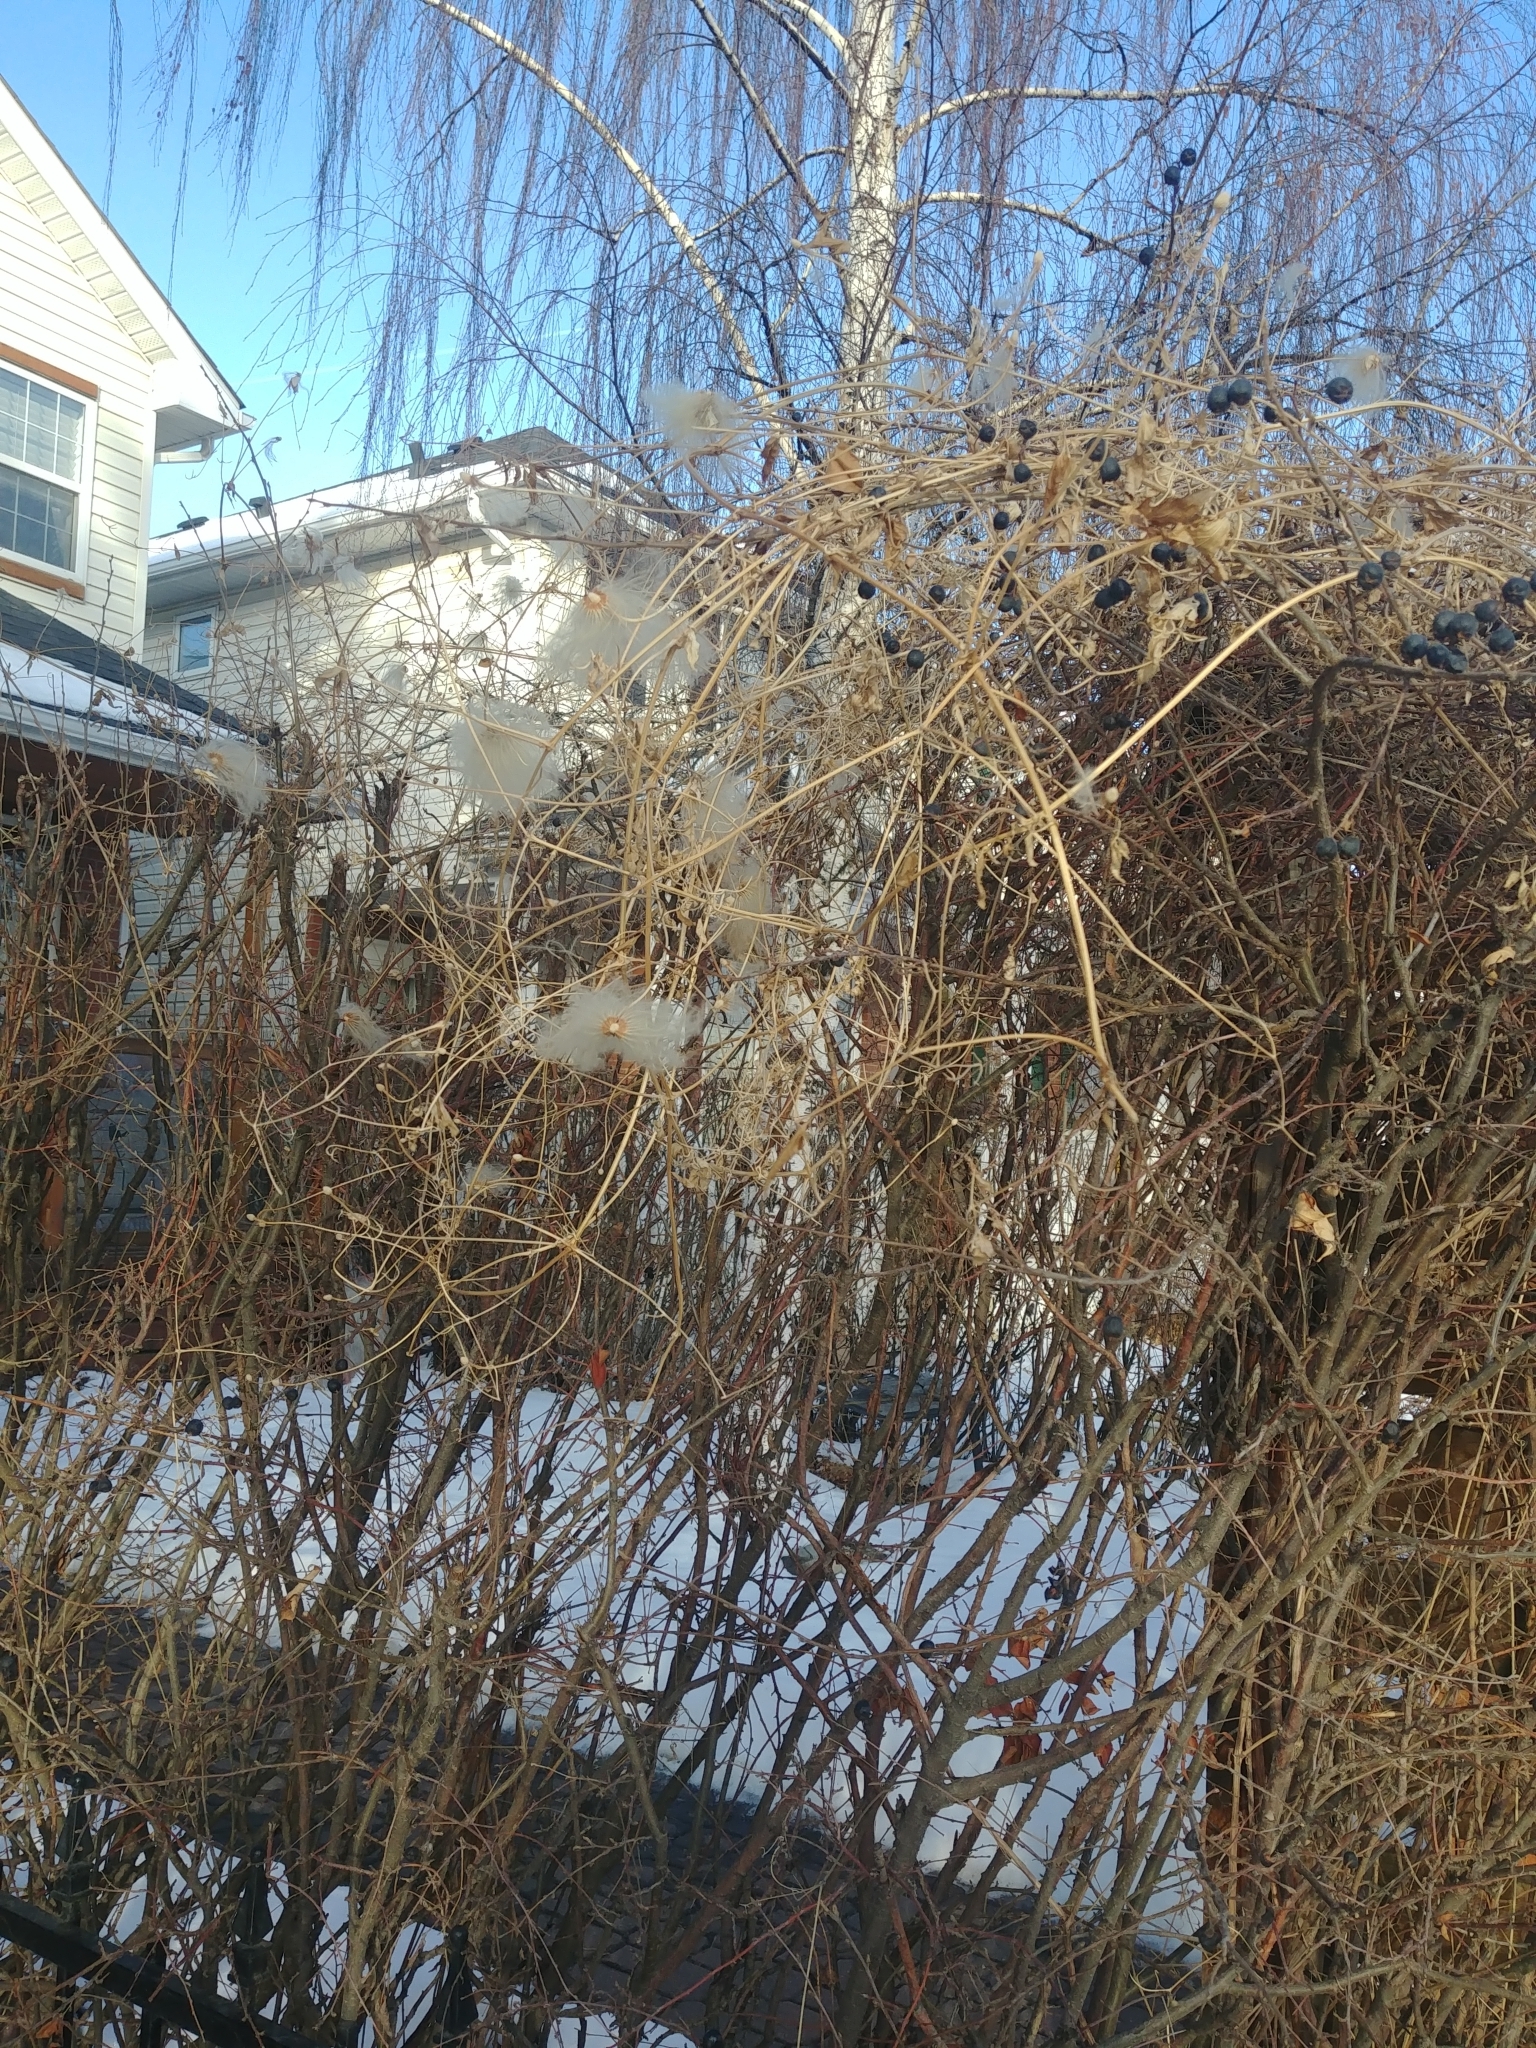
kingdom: Plantae
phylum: Tracheophyta
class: Magnoliopsida
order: Ranunculales
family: Ranunculaceae
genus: Clematis
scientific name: Clematis tangutica
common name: Orange-peel clematis
